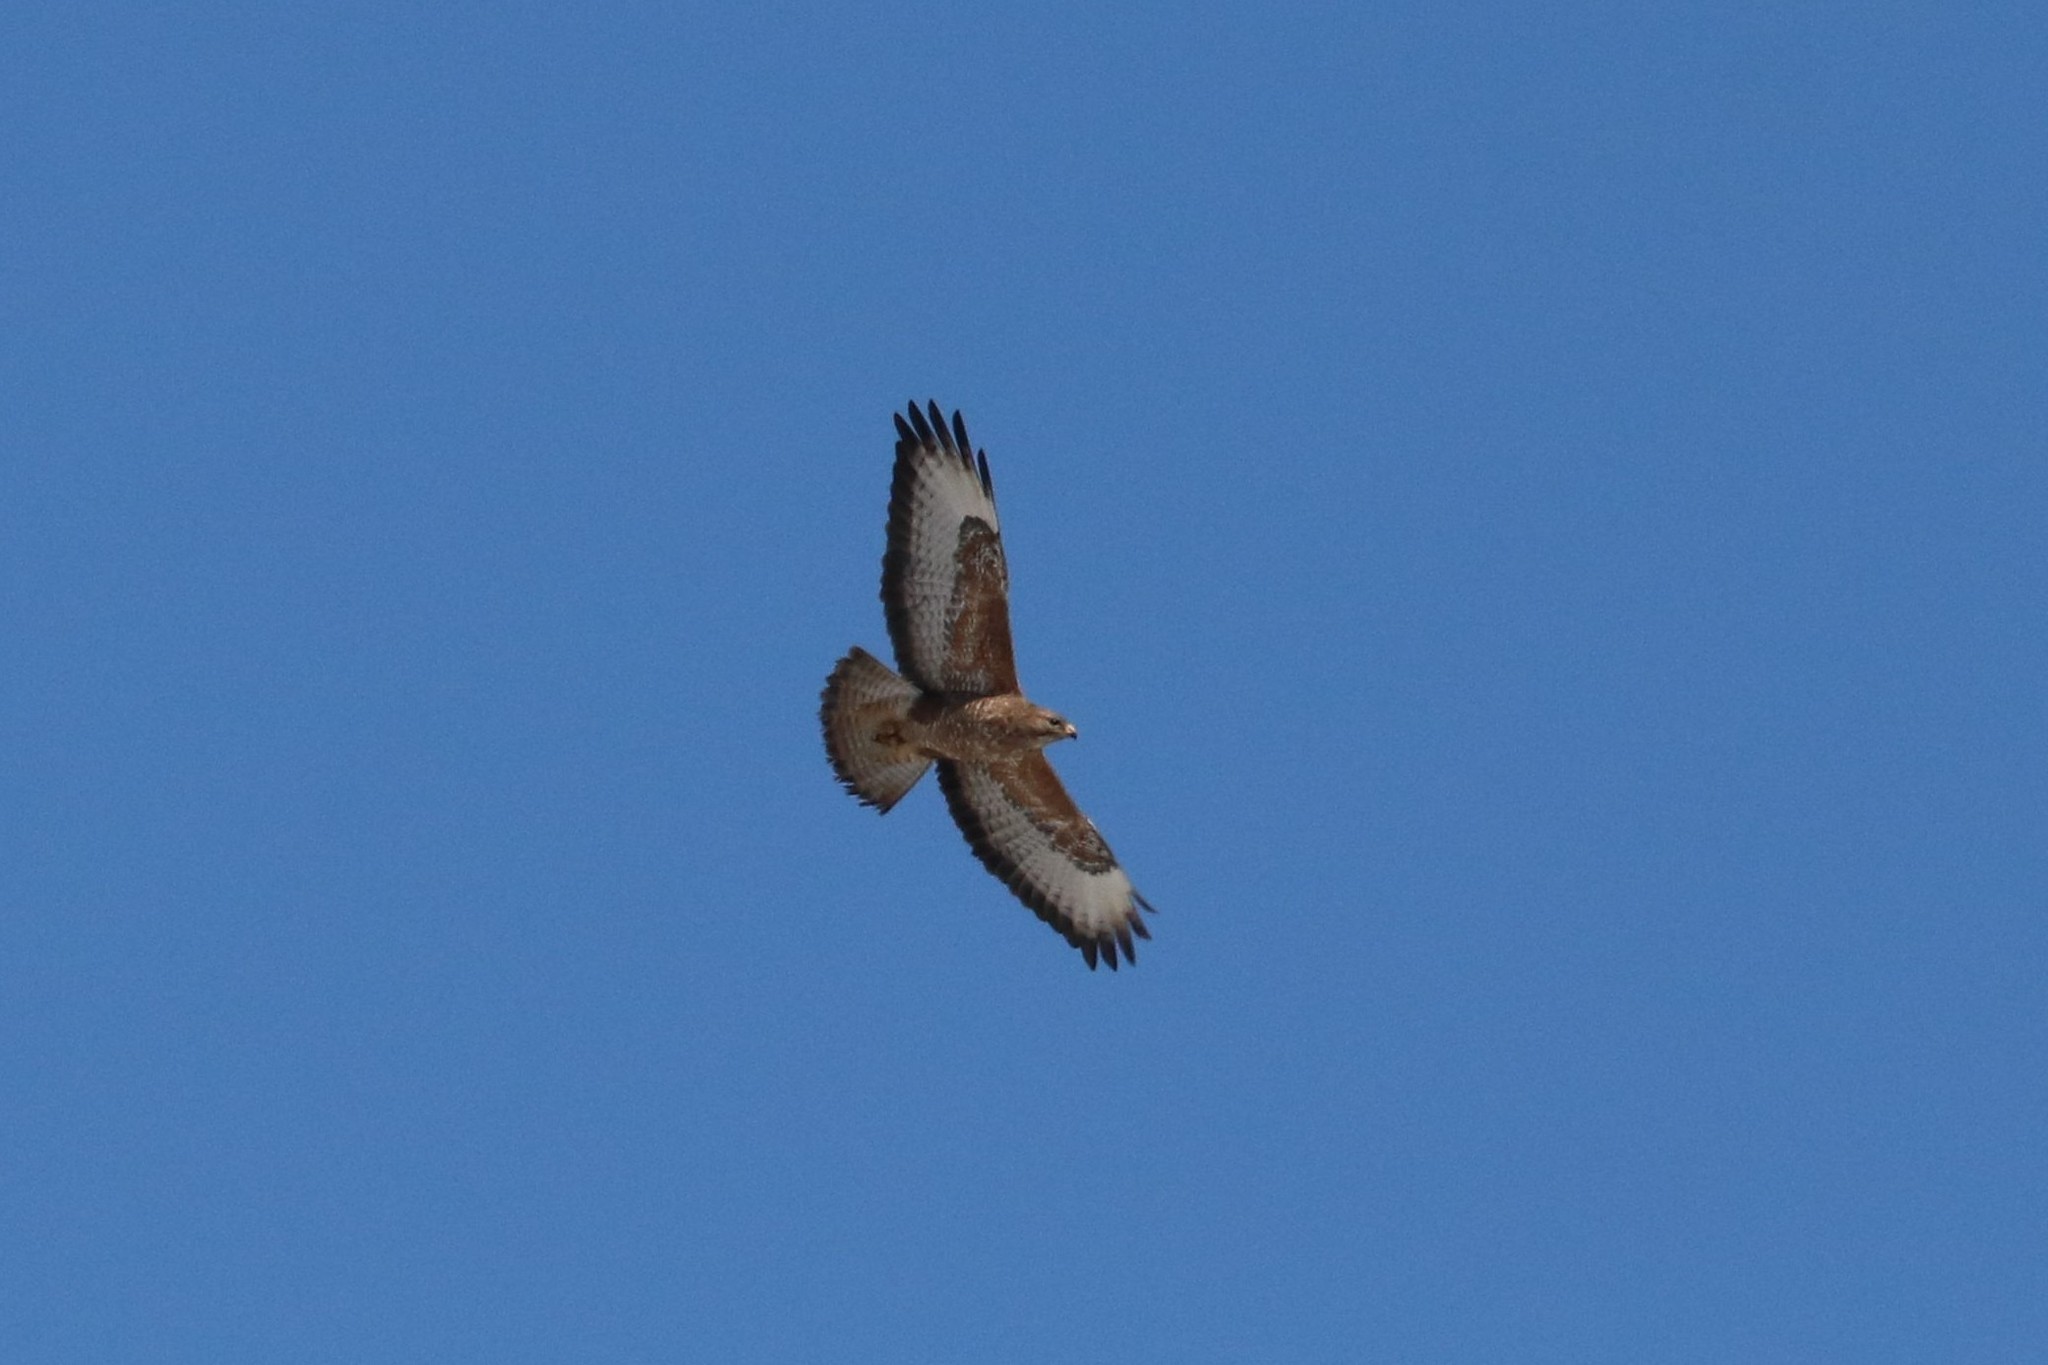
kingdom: Animalia
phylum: Chordata
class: Aves
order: Accipitriformes
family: Accipitridae
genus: Buteo
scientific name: Buteo buteo
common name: Common buzzard
